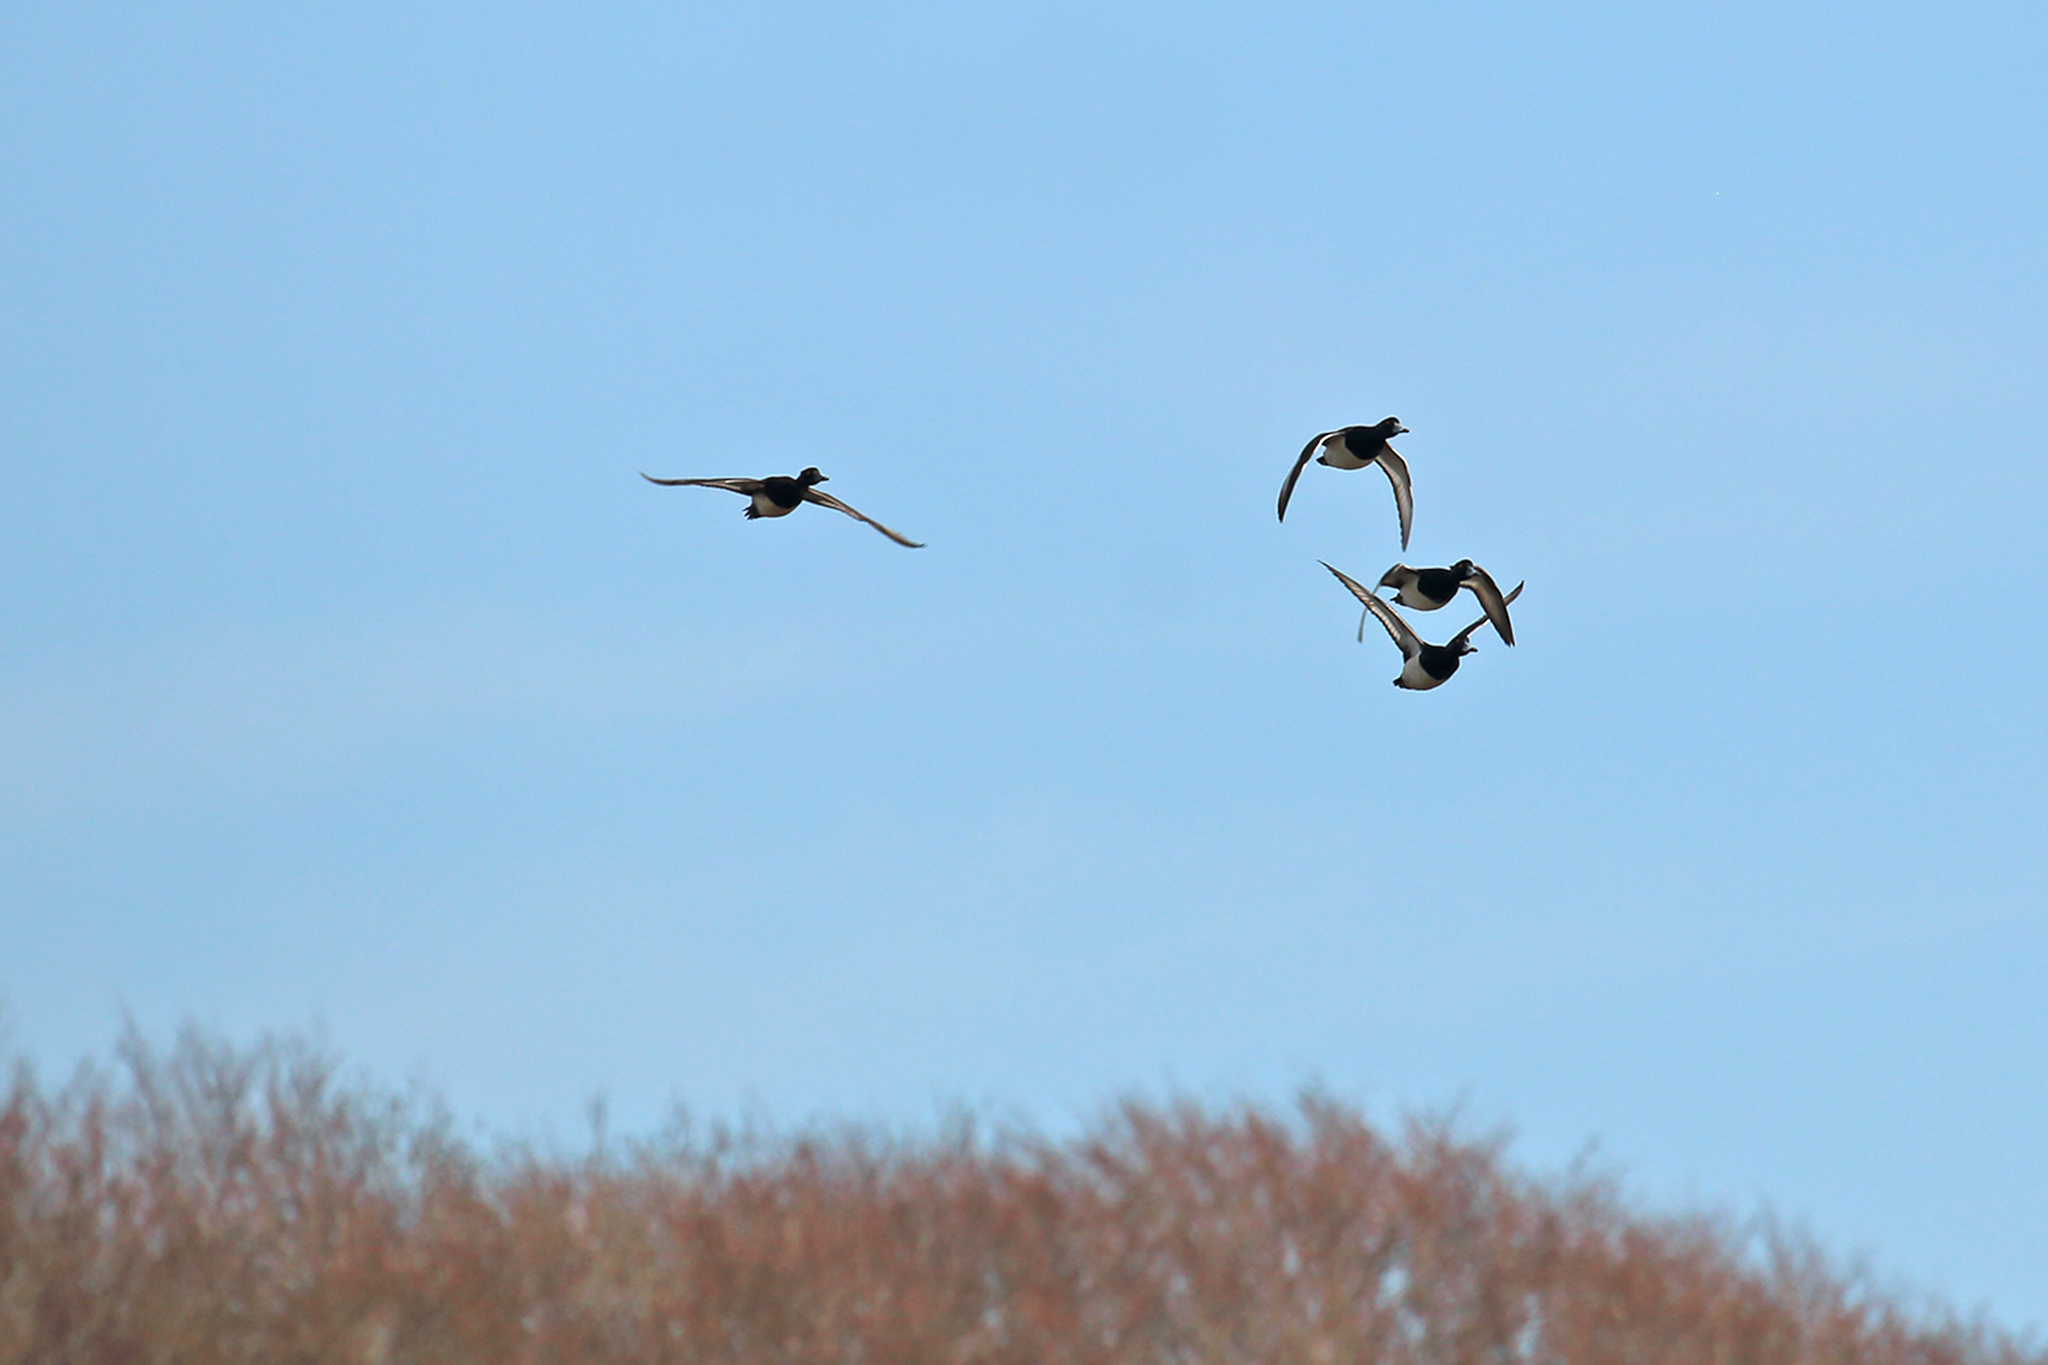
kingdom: Animalia
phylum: Chordata
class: Aves
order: Anseriformes
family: Anatidae
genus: Aythya
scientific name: Aythya fuligula
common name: Tufted duck
